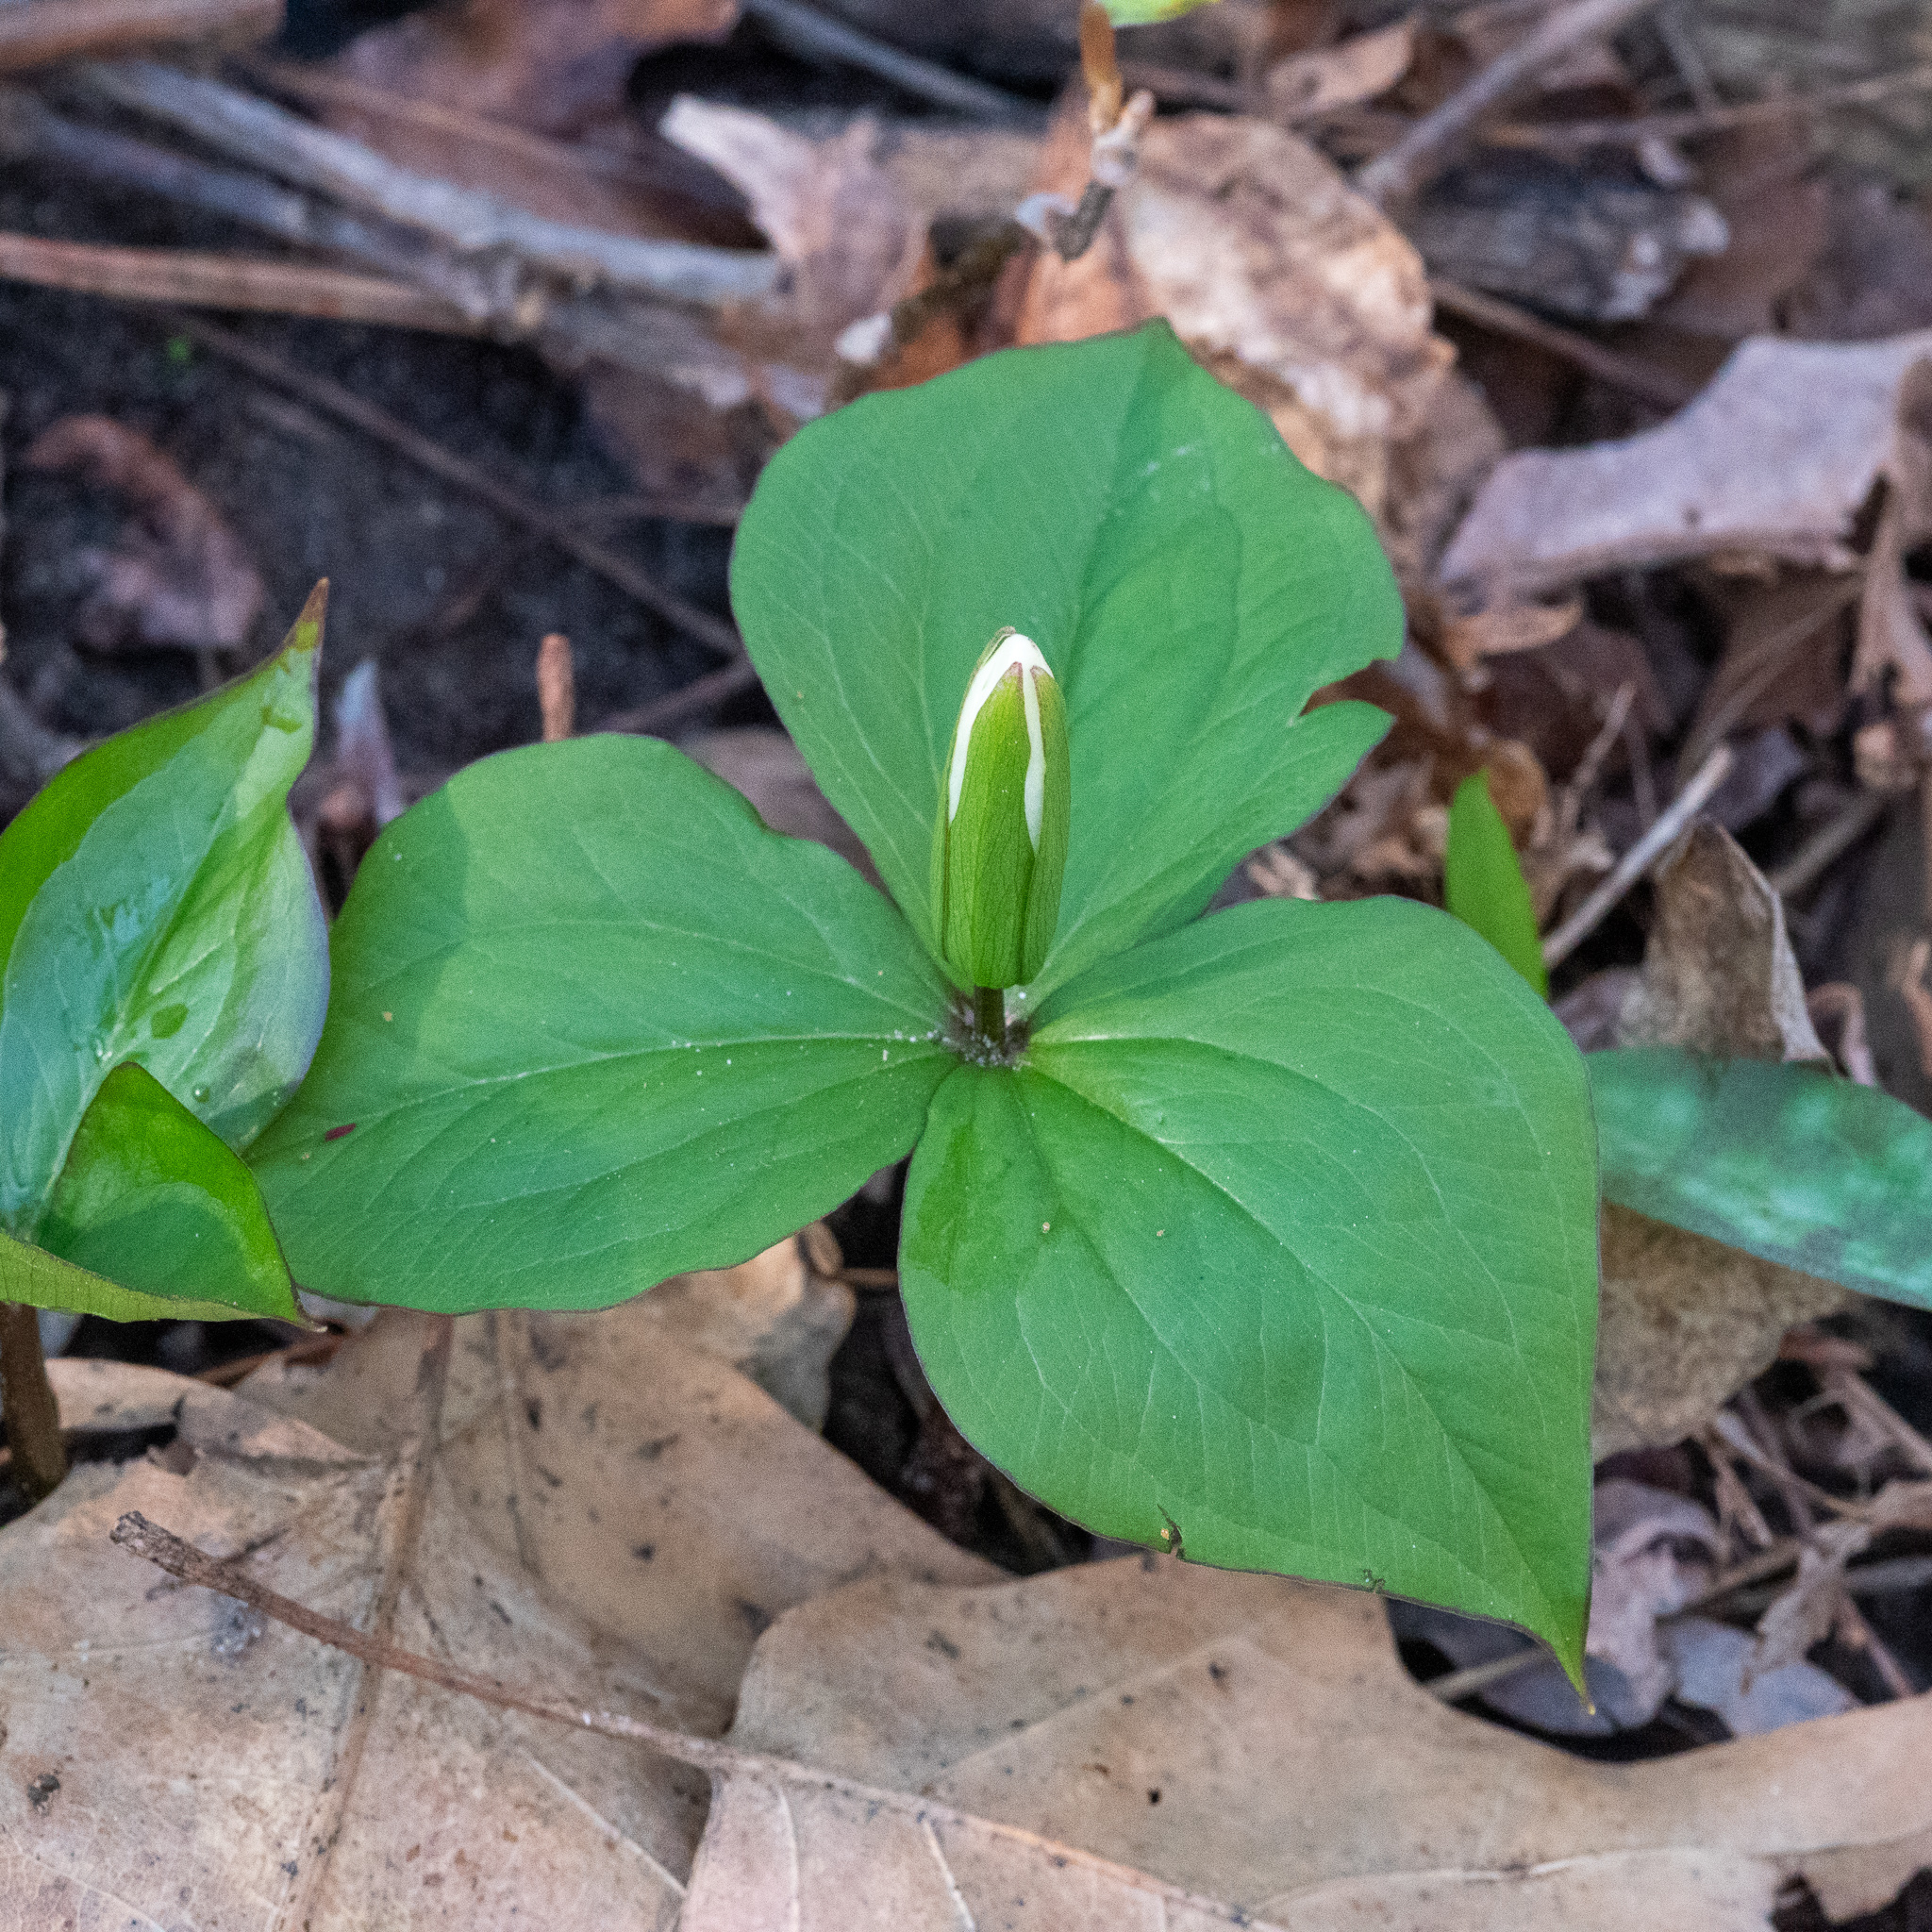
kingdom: Plantae
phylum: Tracheophyta
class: Liliopsida
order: Liliales
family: Melanthiaceae
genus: Trillium
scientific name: Trillium grandiflorum
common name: Great white trillium
